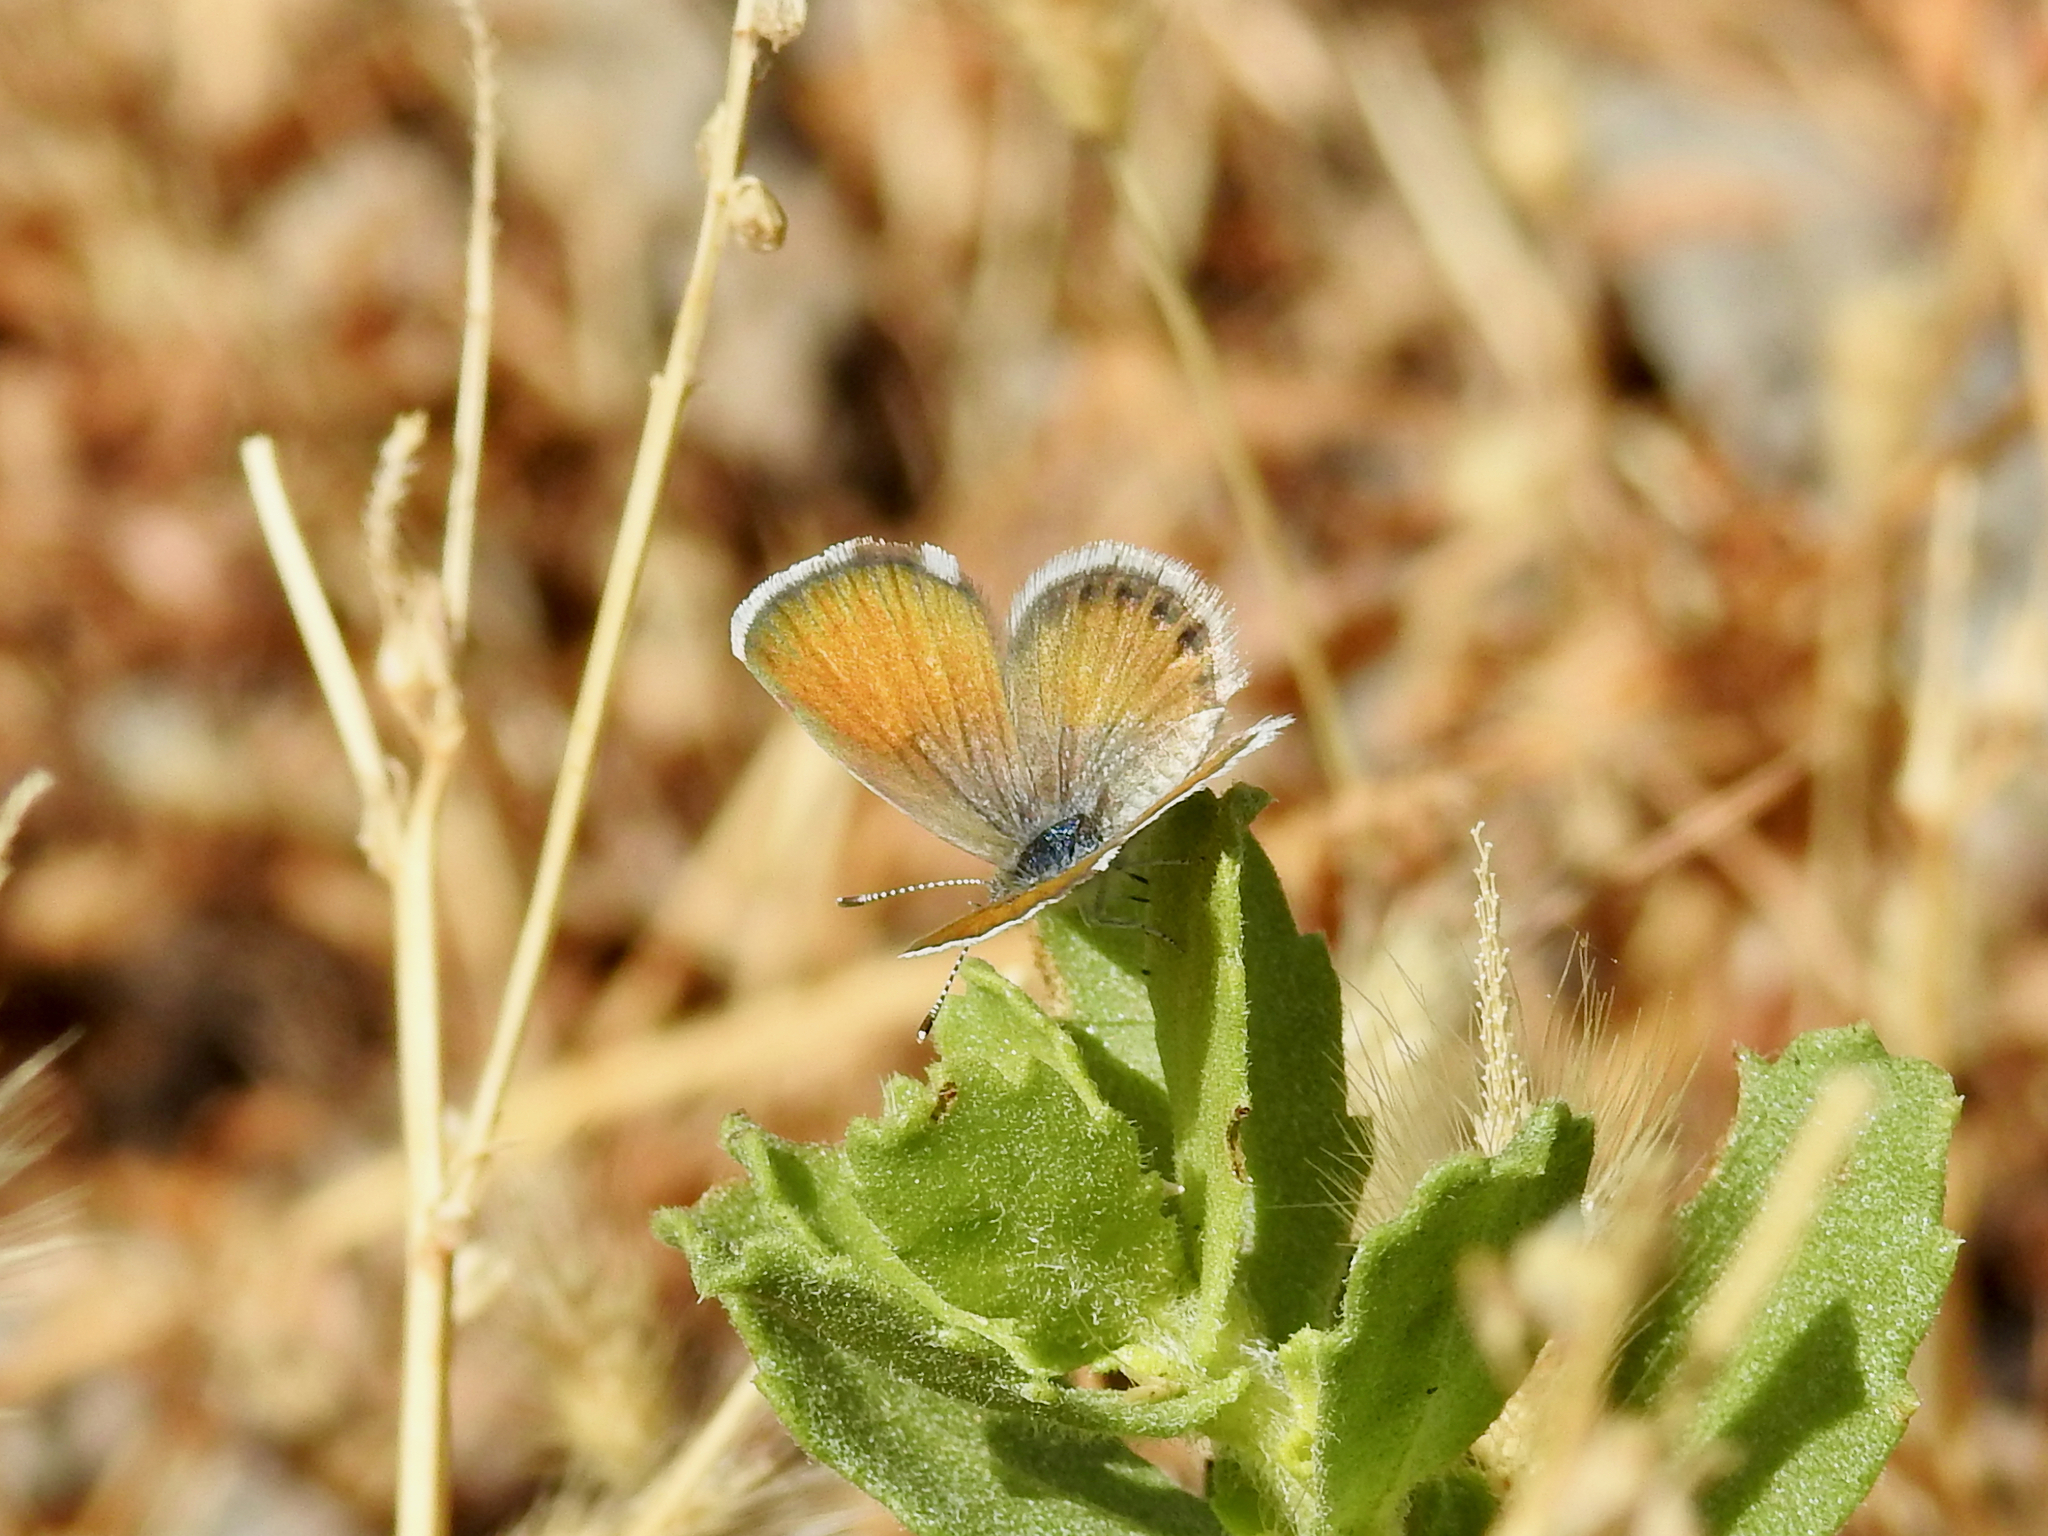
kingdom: Animalia
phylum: Arthropoda
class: Insecta
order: Lepidoptera
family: Lycaenidae
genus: Brephidium
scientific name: Brephidium exilis
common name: Pygmy blue
